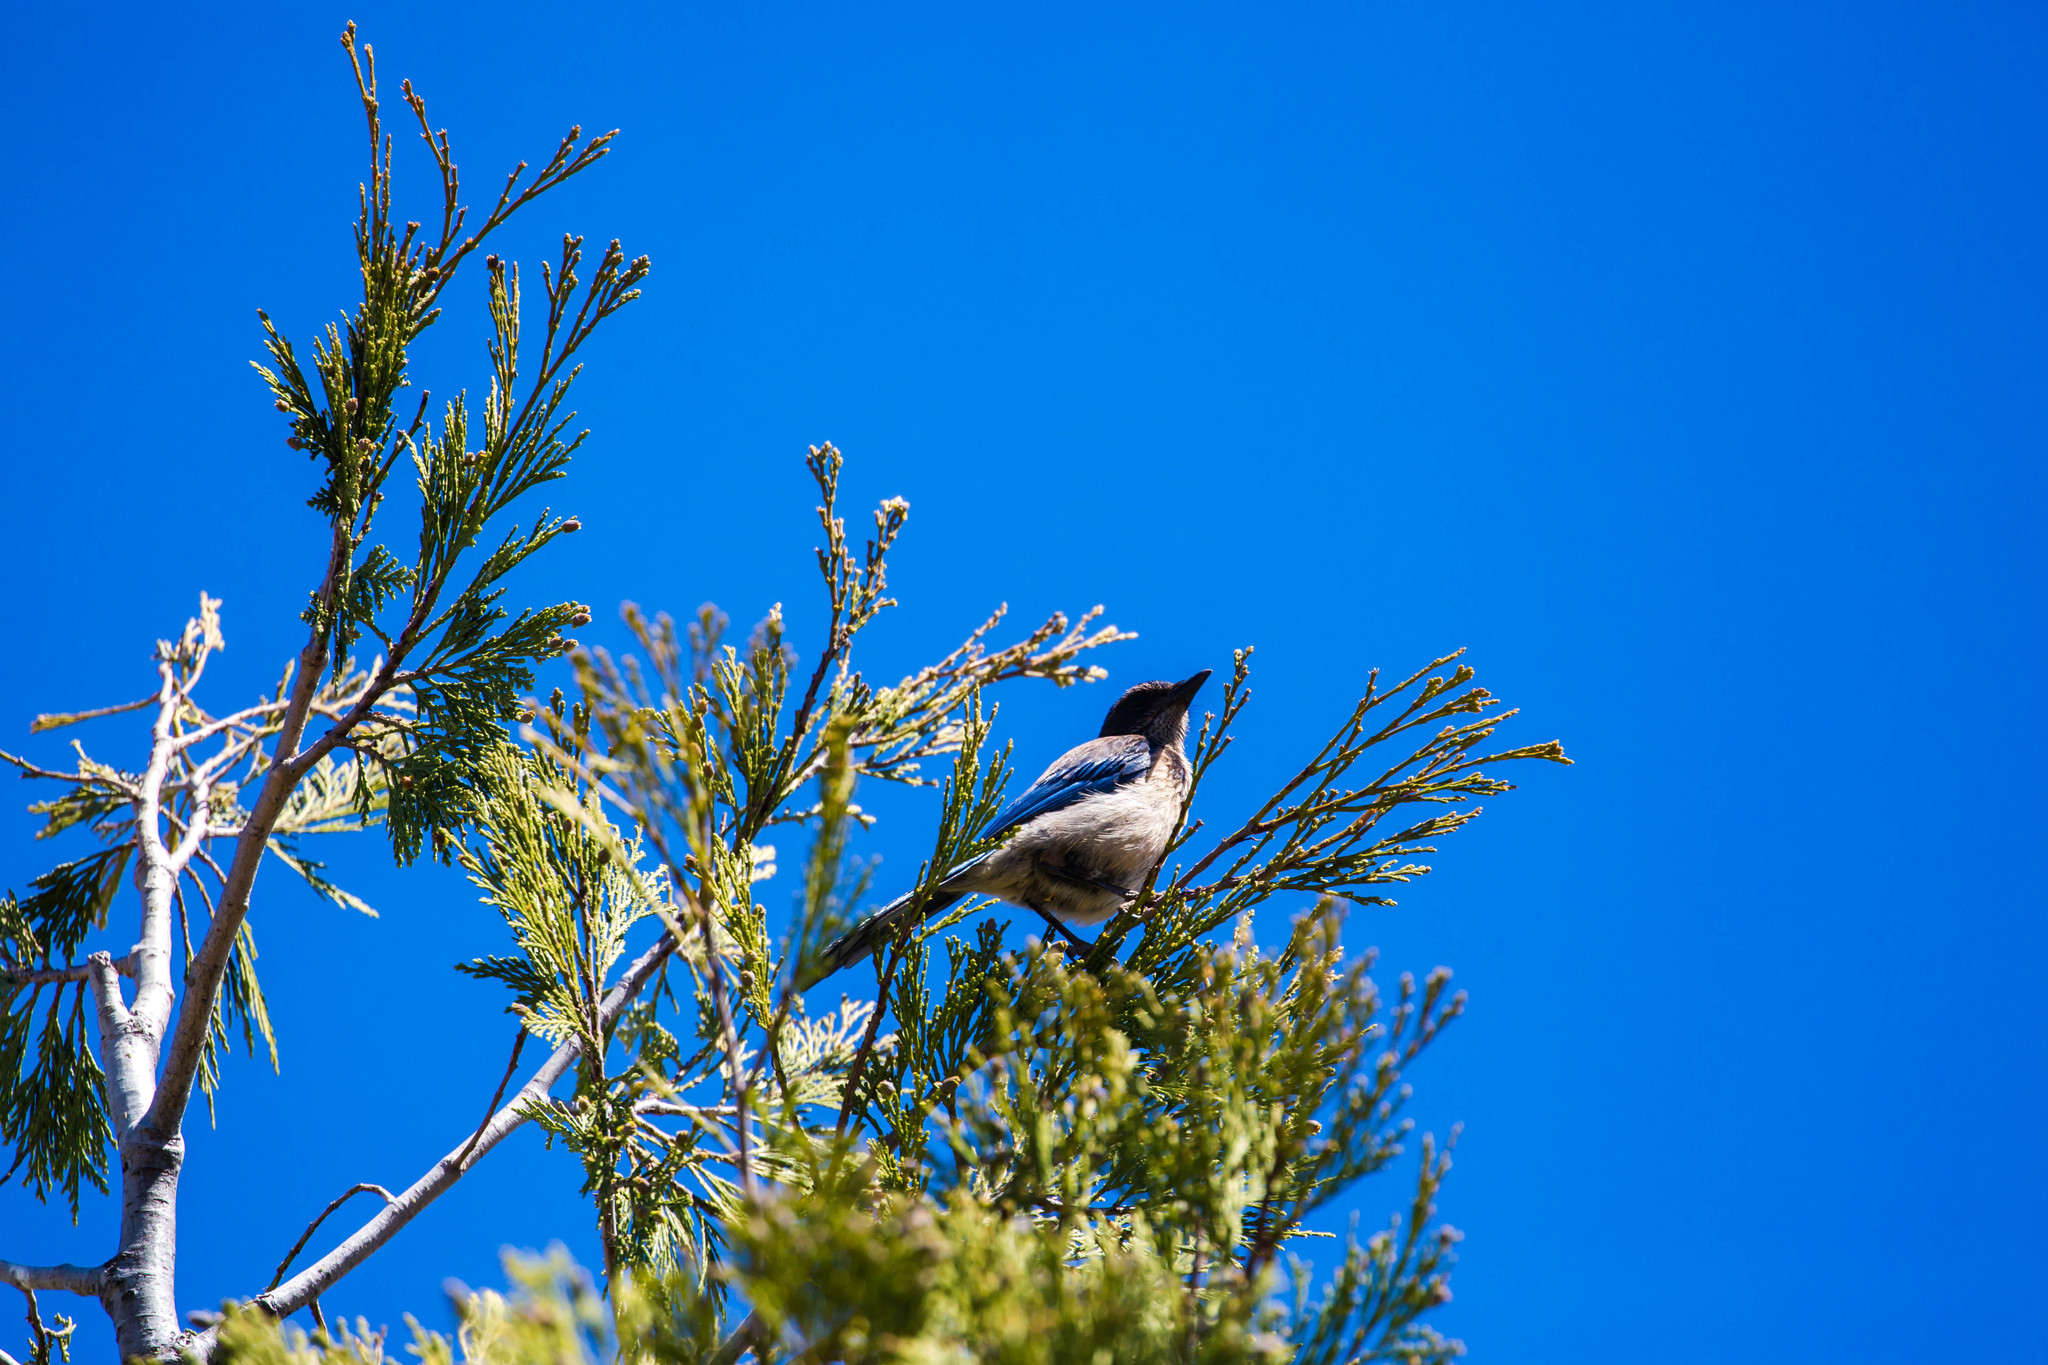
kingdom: Animalia
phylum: Chordata
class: Aves
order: Passeriformes
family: Corvidae
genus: Aphelocoma
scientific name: Aphelocoma californica
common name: California scrub-jay
